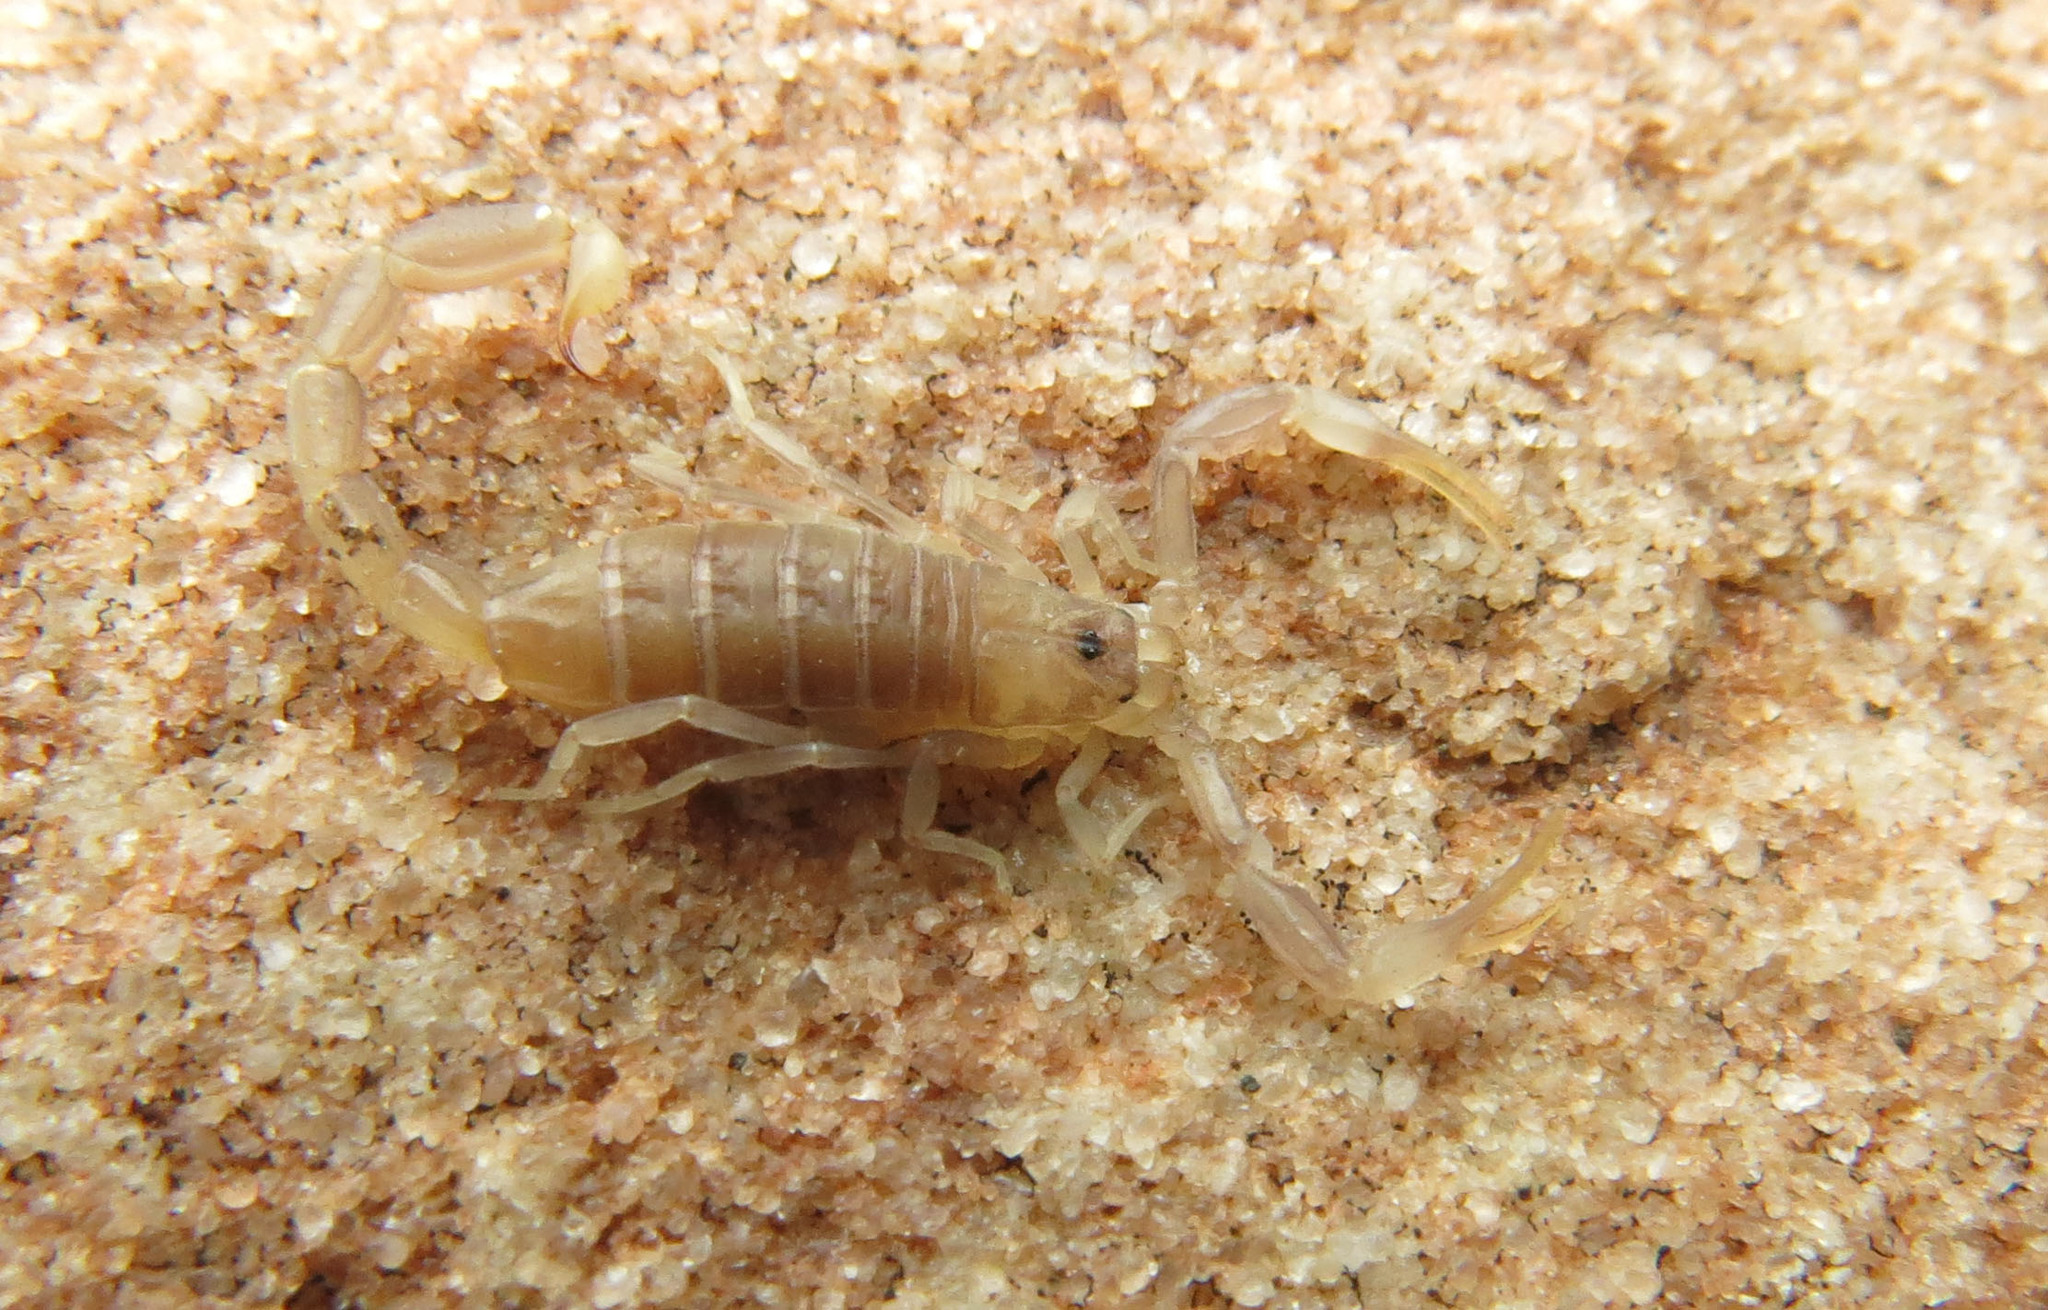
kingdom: Animalia
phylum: Arthropoda
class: Arachnida
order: Scorpiones
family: Buthidae
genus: Afroisometrus
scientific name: Afroisometrus minshullae
